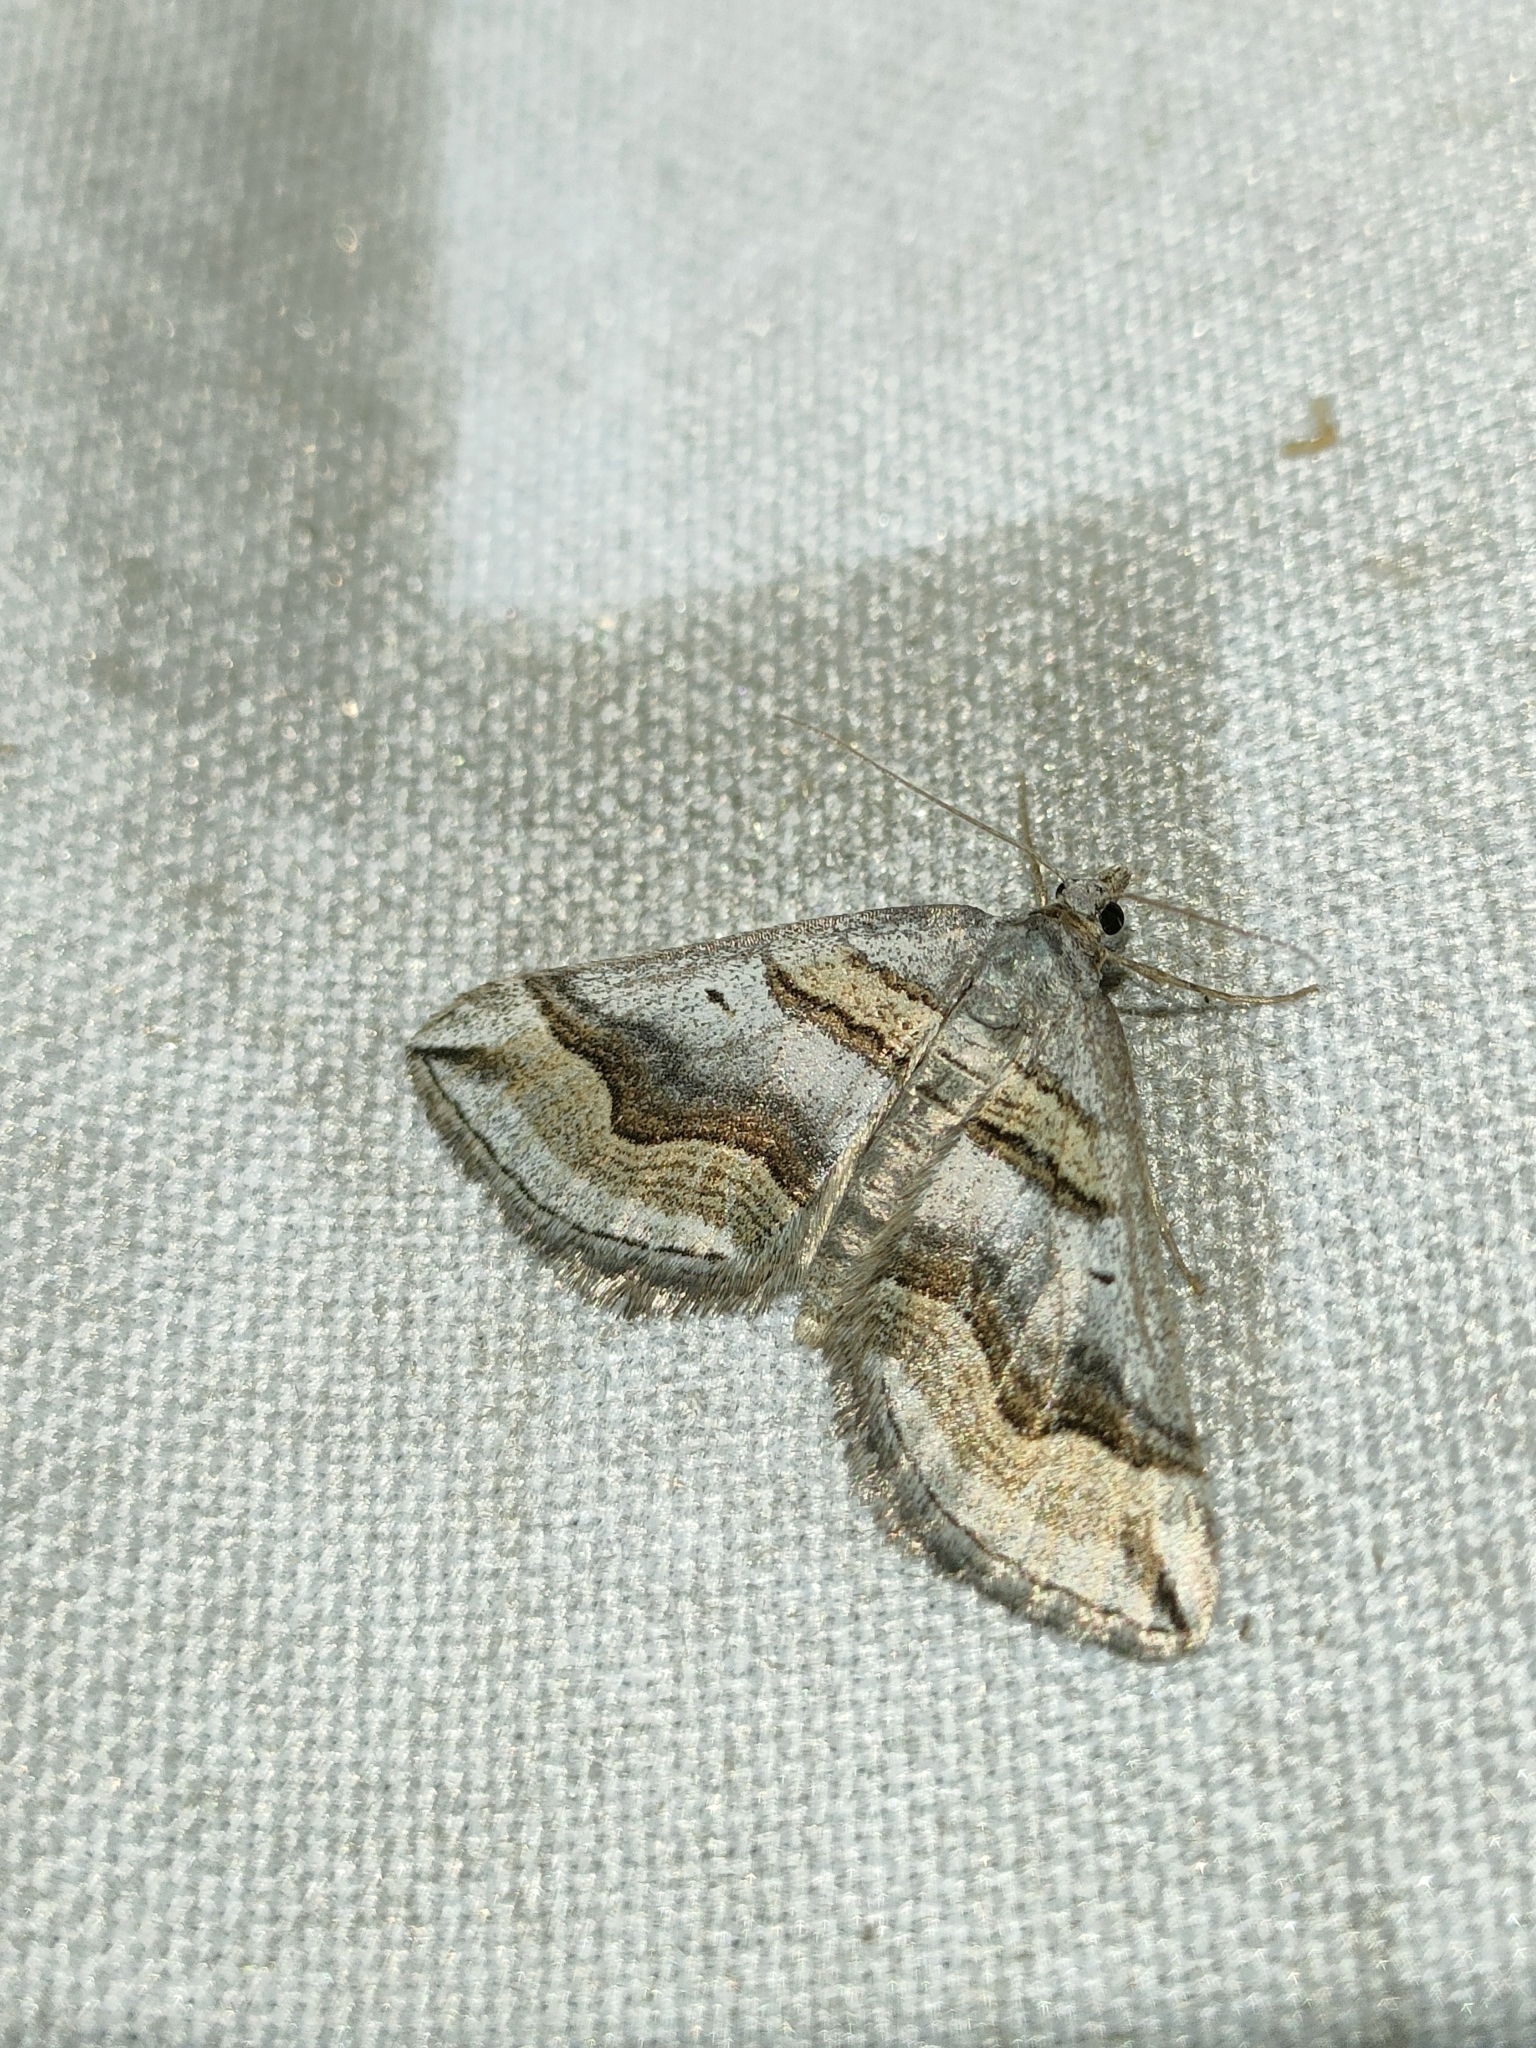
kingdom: Animalia
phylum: Arthropoda
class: Insecta
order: Lepidoptera
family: Geometridae
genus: Scotopteryx
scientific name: Scotopteryx peribolata
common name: Spanish carpet
